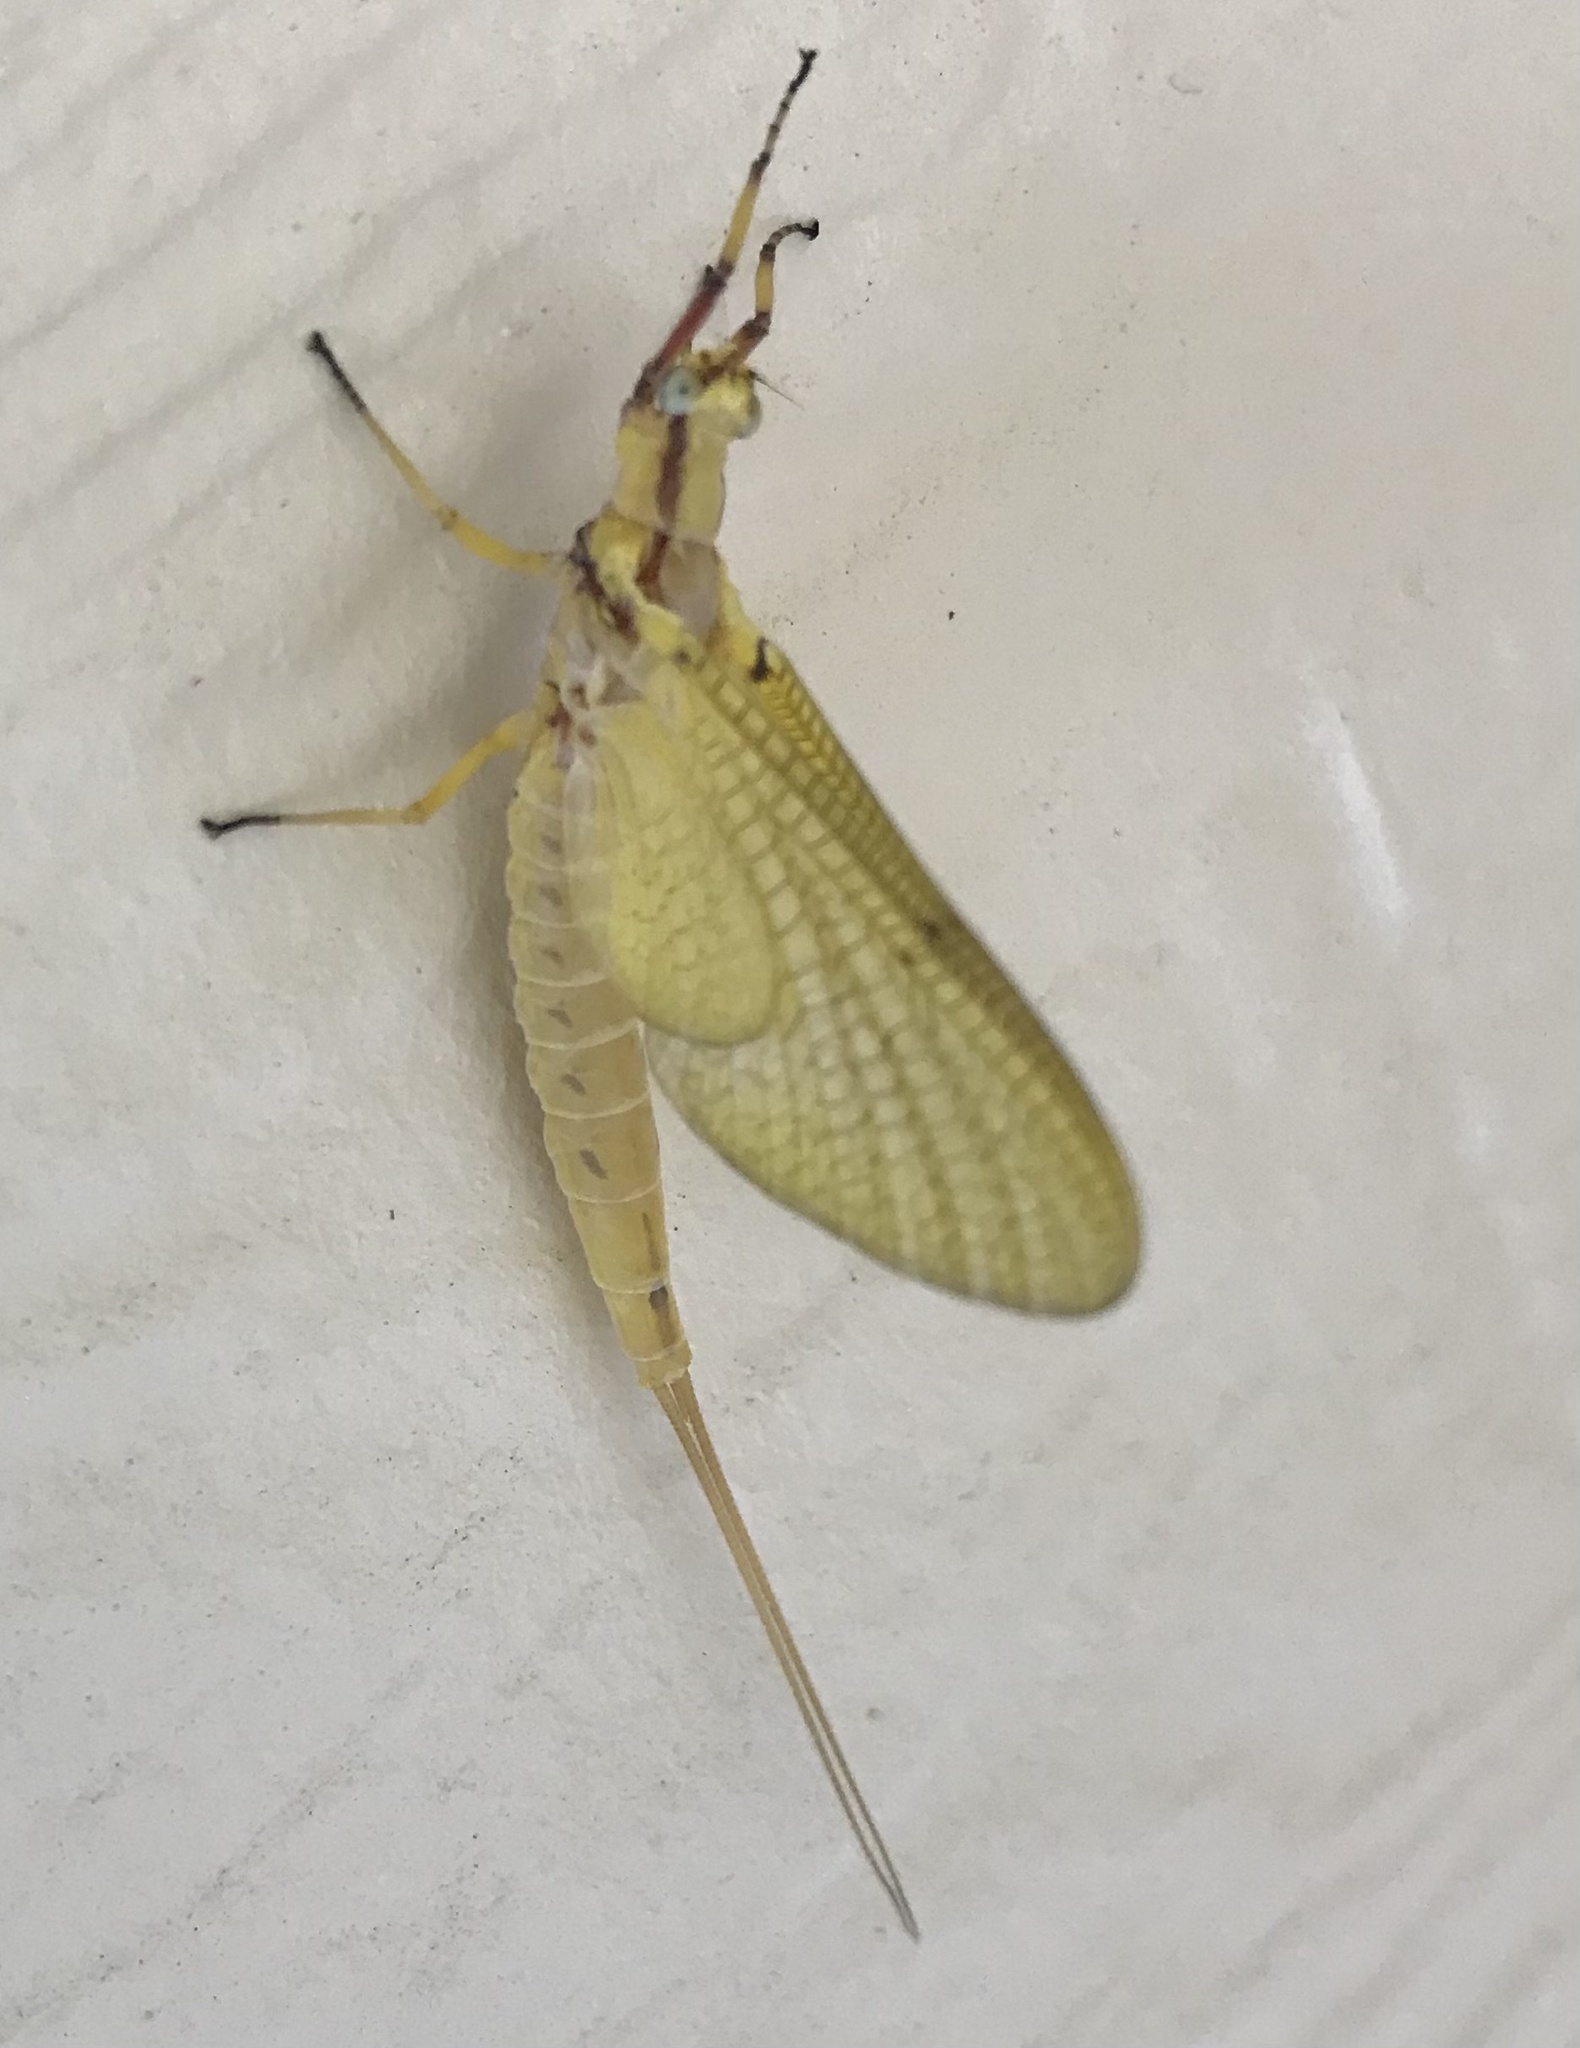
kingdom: Animalia
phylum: Arthropoda
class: Insecta
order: Ephemeroptera
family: Ephemeridae
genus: Hexagenia
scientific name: Hexagenia limbata
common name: Giant mayfly
